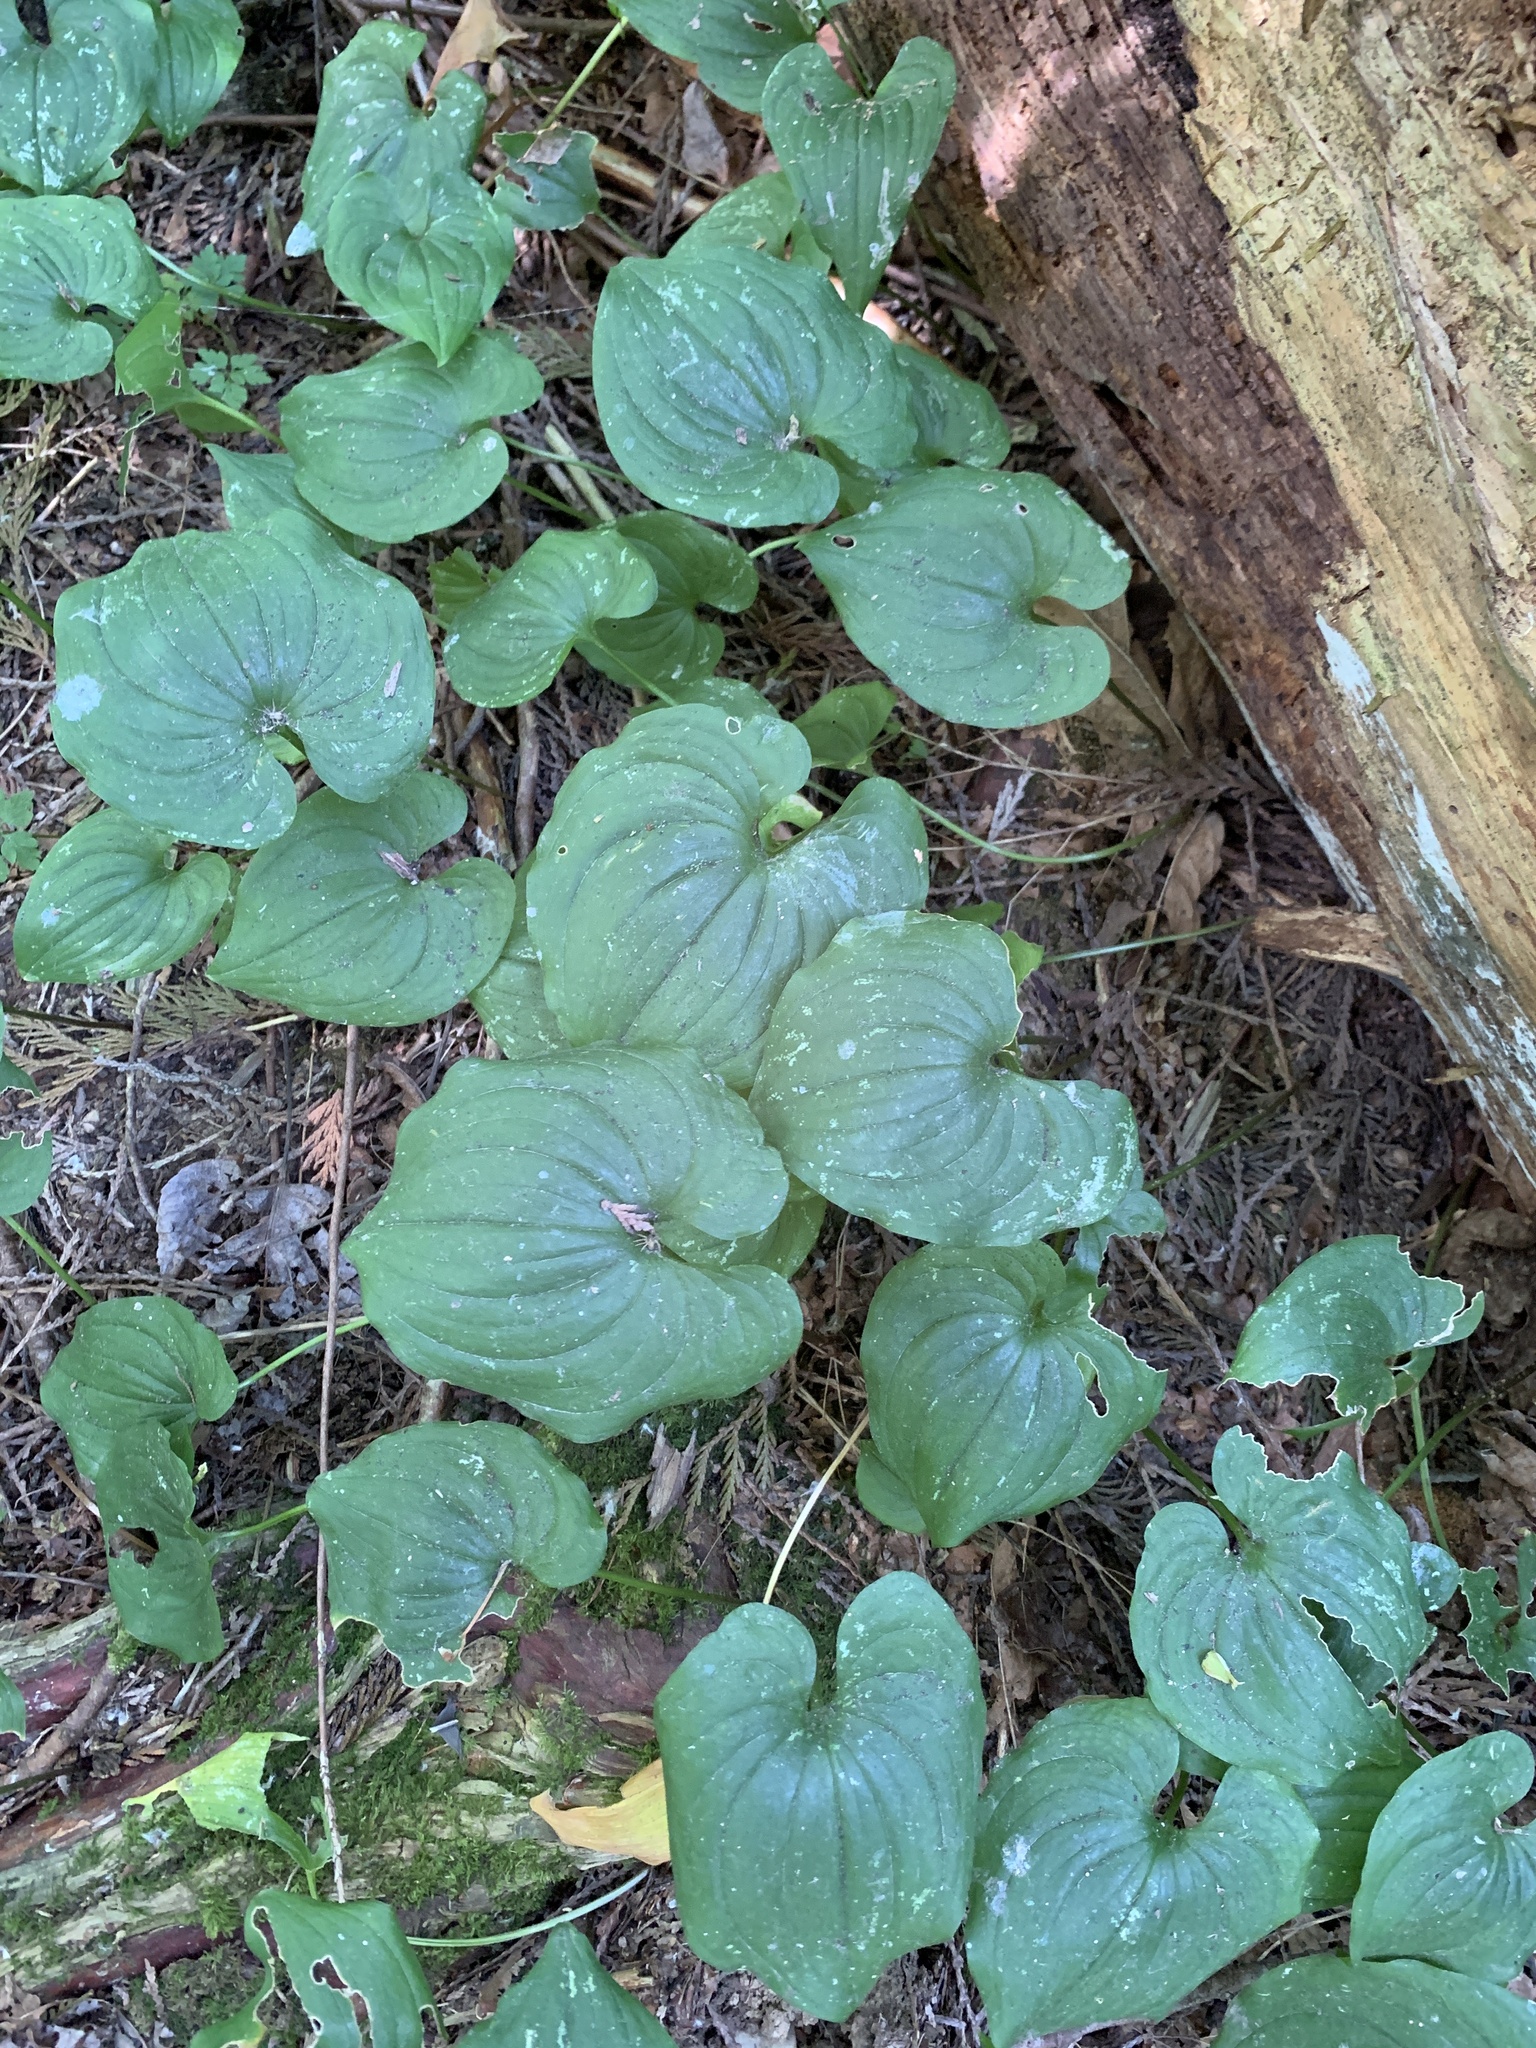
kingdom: Plantae
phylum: Tracheophyta
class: Liliopsida
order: Asparagales
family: Asparagaceae
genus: Maianthemum
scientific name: Maianthemum dilatatum
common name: False lily-of-the-valley
